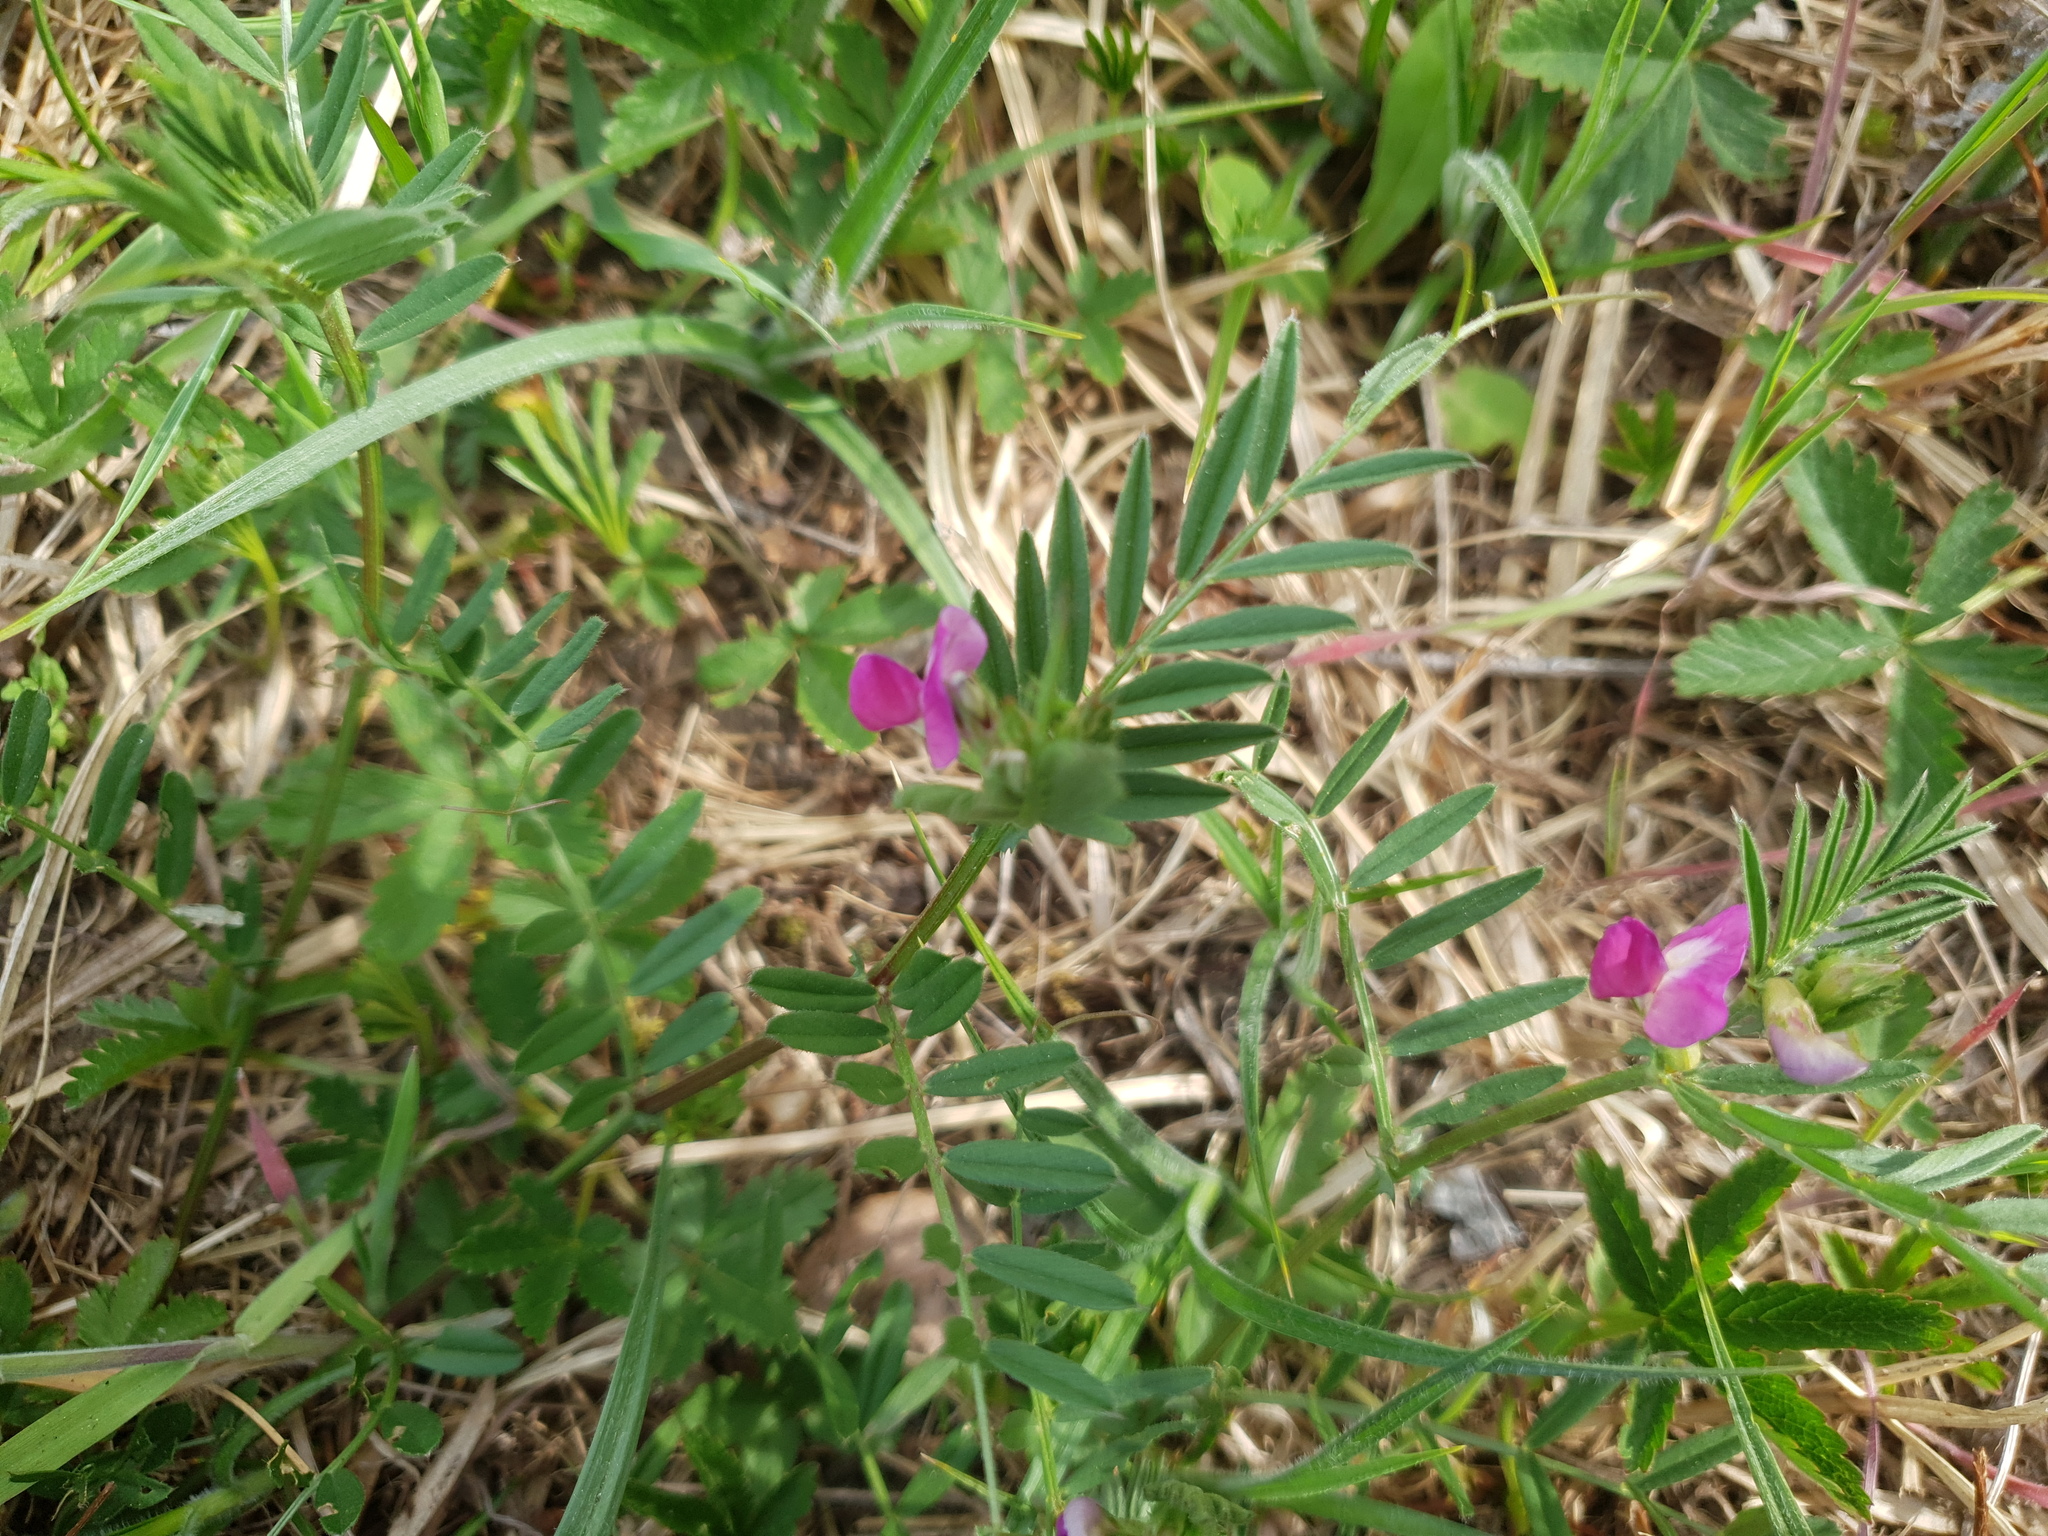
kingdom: Plantae
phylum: Tracheophyta
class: Magnoliopsida
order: Fabales
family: Fabaceae
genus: Vicia
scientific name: Vicia sativa
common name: Garden vetch
